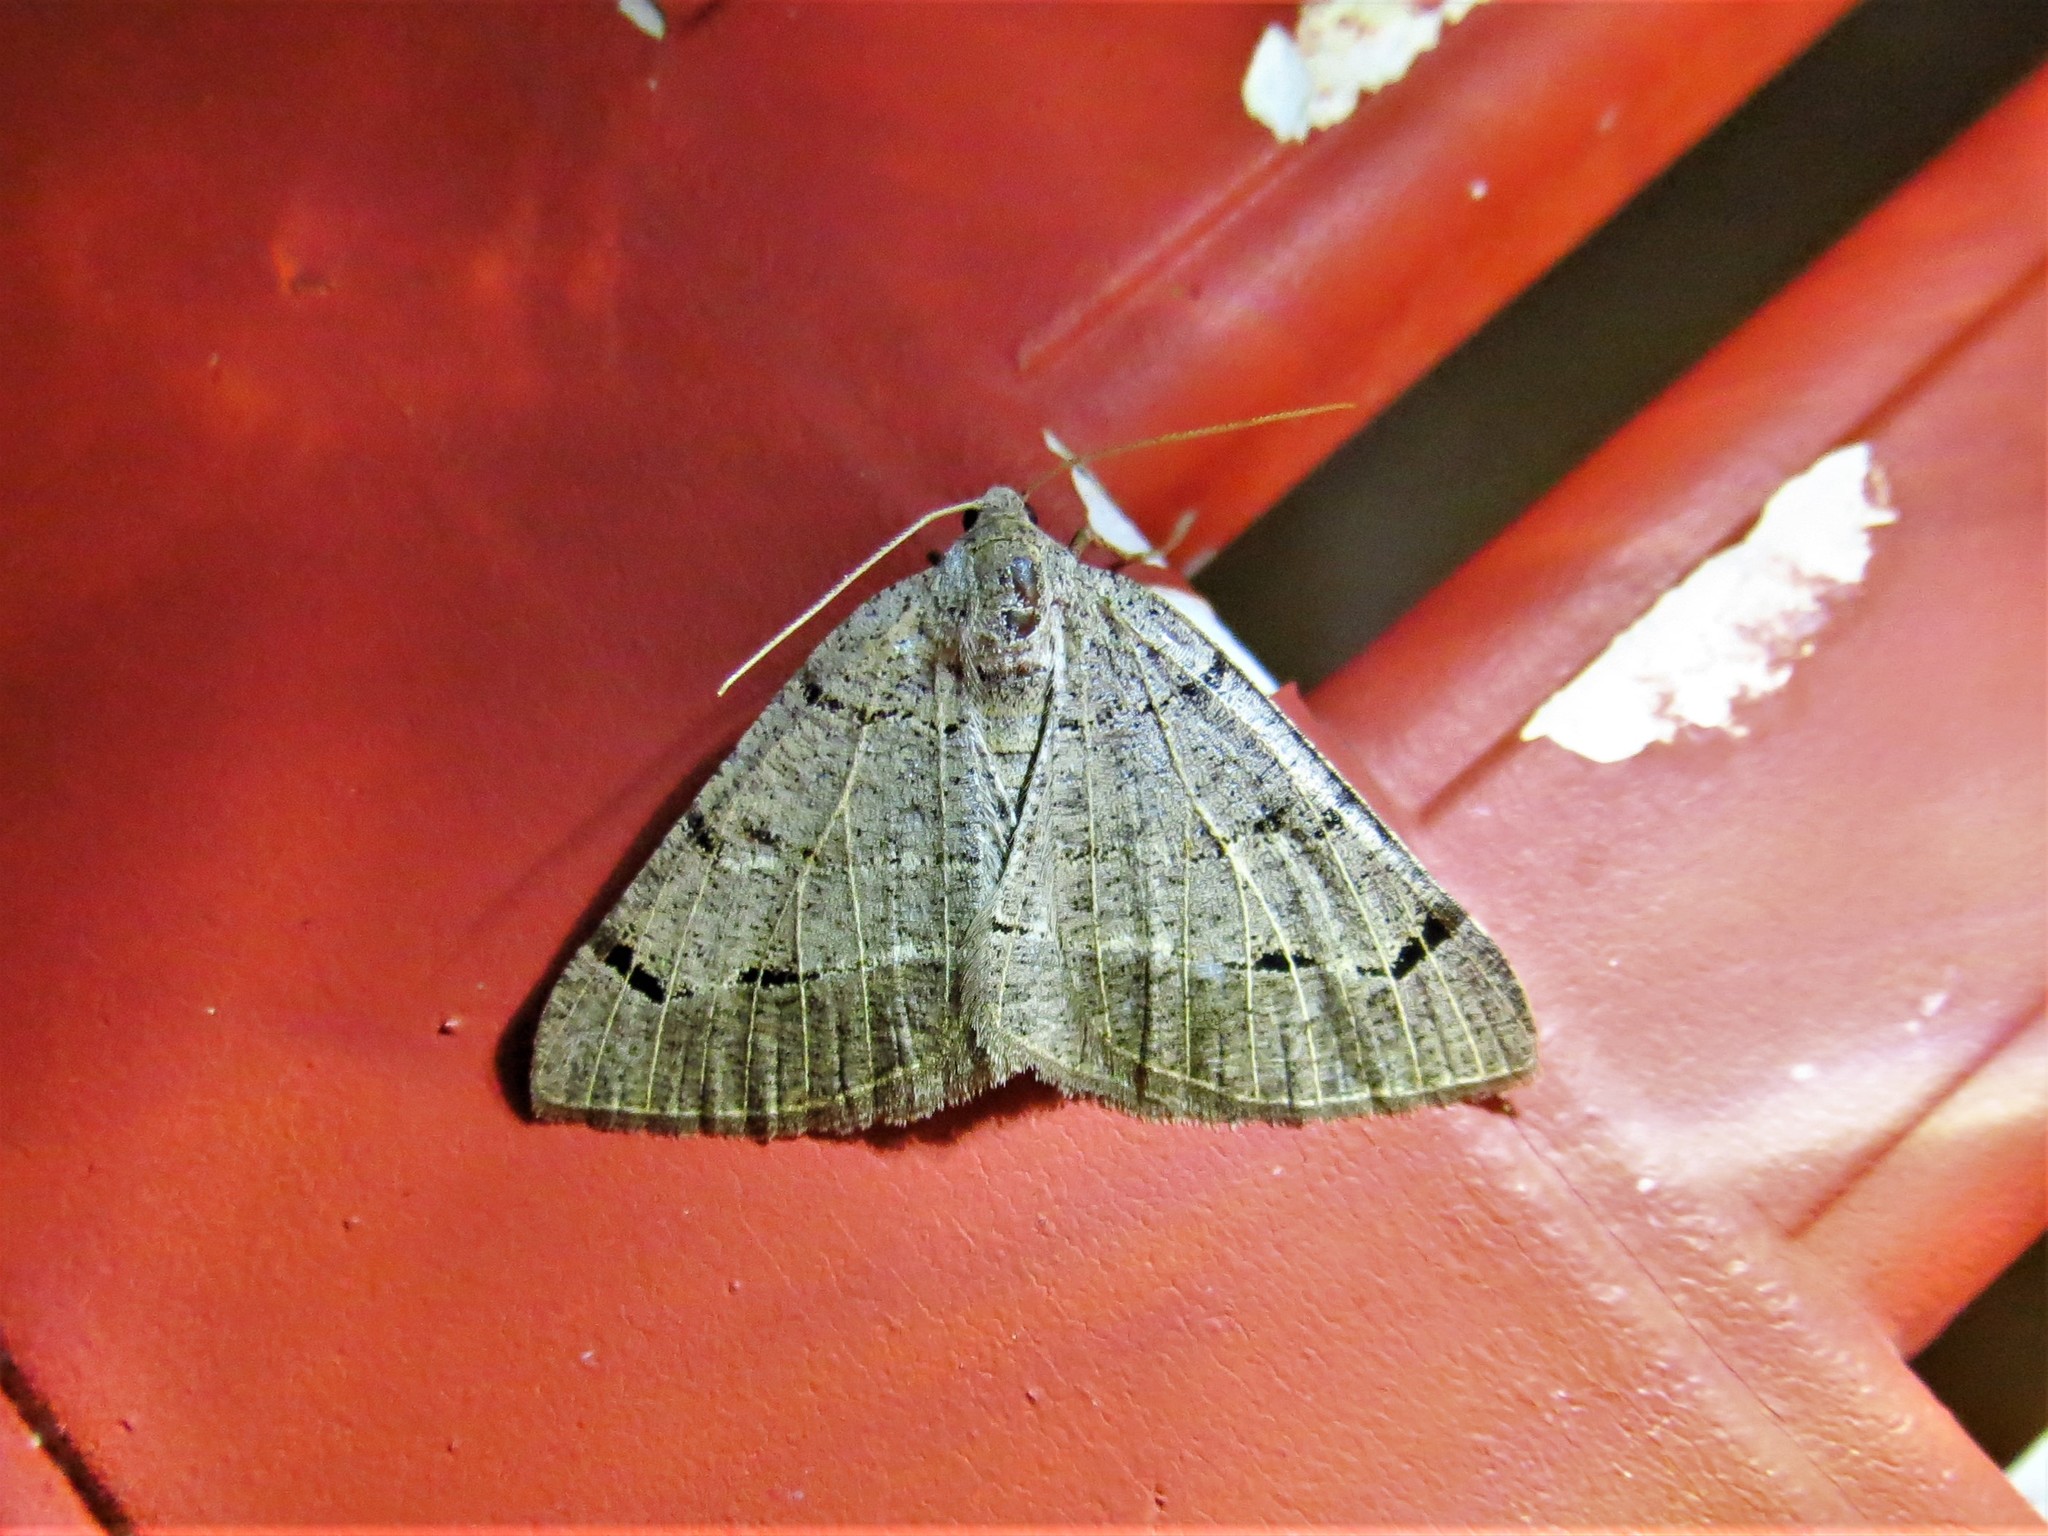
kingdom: Animalia
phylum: Arthropoda
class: Insecta
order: Lepidoptera
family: Geometridae
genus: Isturgia
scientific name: Isturgia dislocaria
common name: Pale-viened enconista
